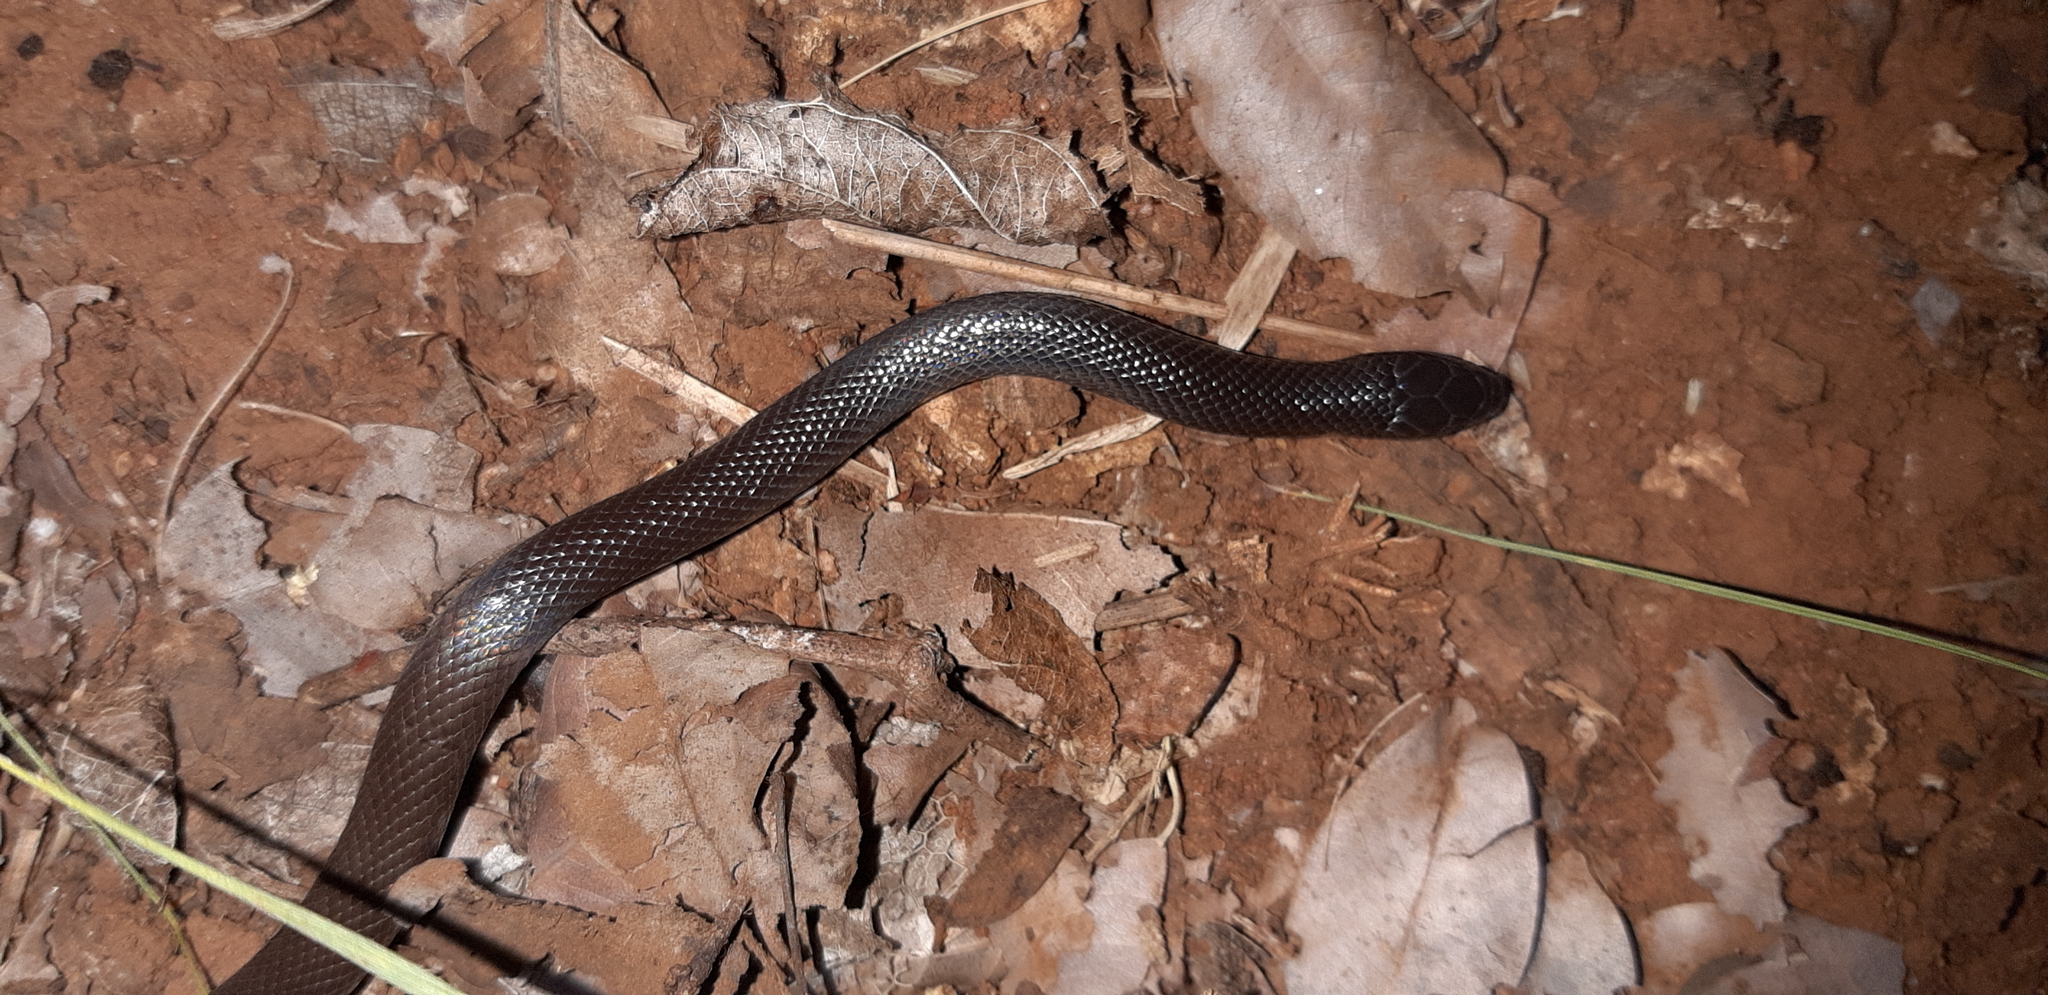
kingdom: Animalia
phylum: Chordata
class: Squamata
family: Atractaspididae
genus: Atractaspis
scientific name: Atractaspis bibronii
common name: Bibron's burrowing asp
